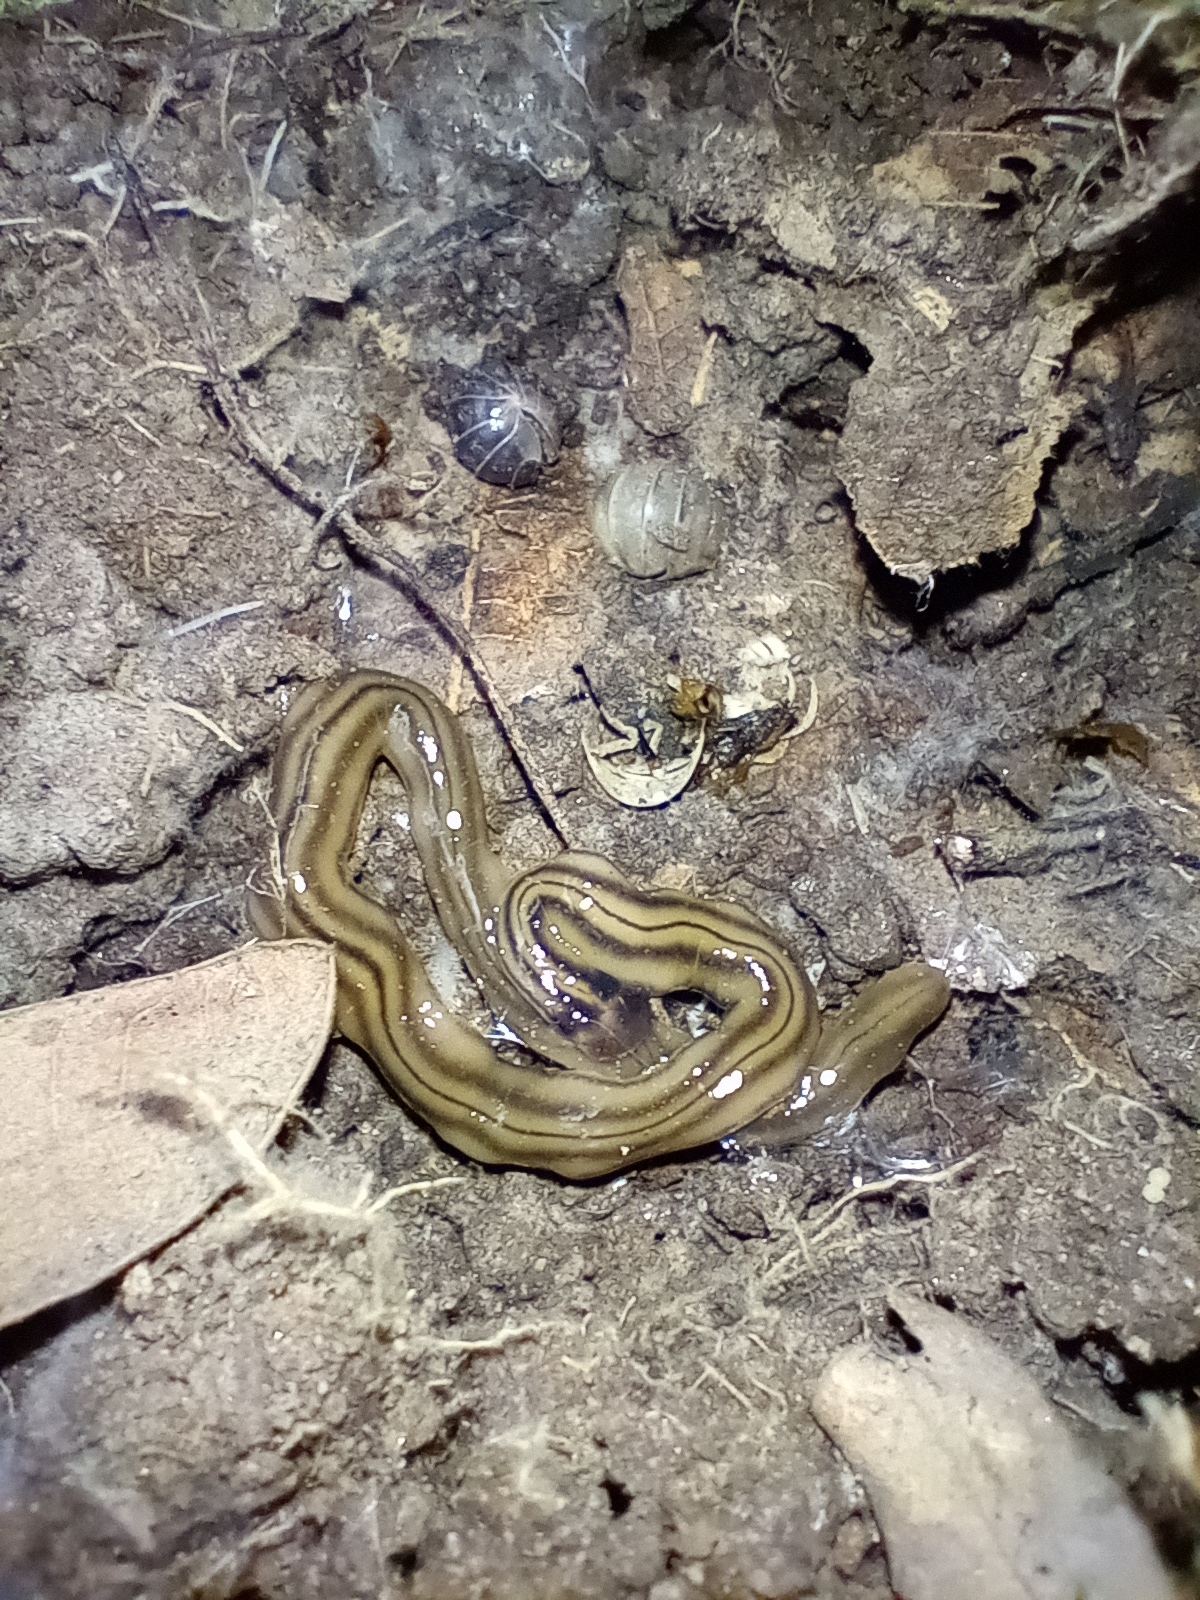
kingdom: Animalia
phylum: Platyhelminthes
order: Tricladida
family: Geoplanidae
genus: Bipalium
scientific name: Bipalium kewense
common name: Hammerhead flatworm
